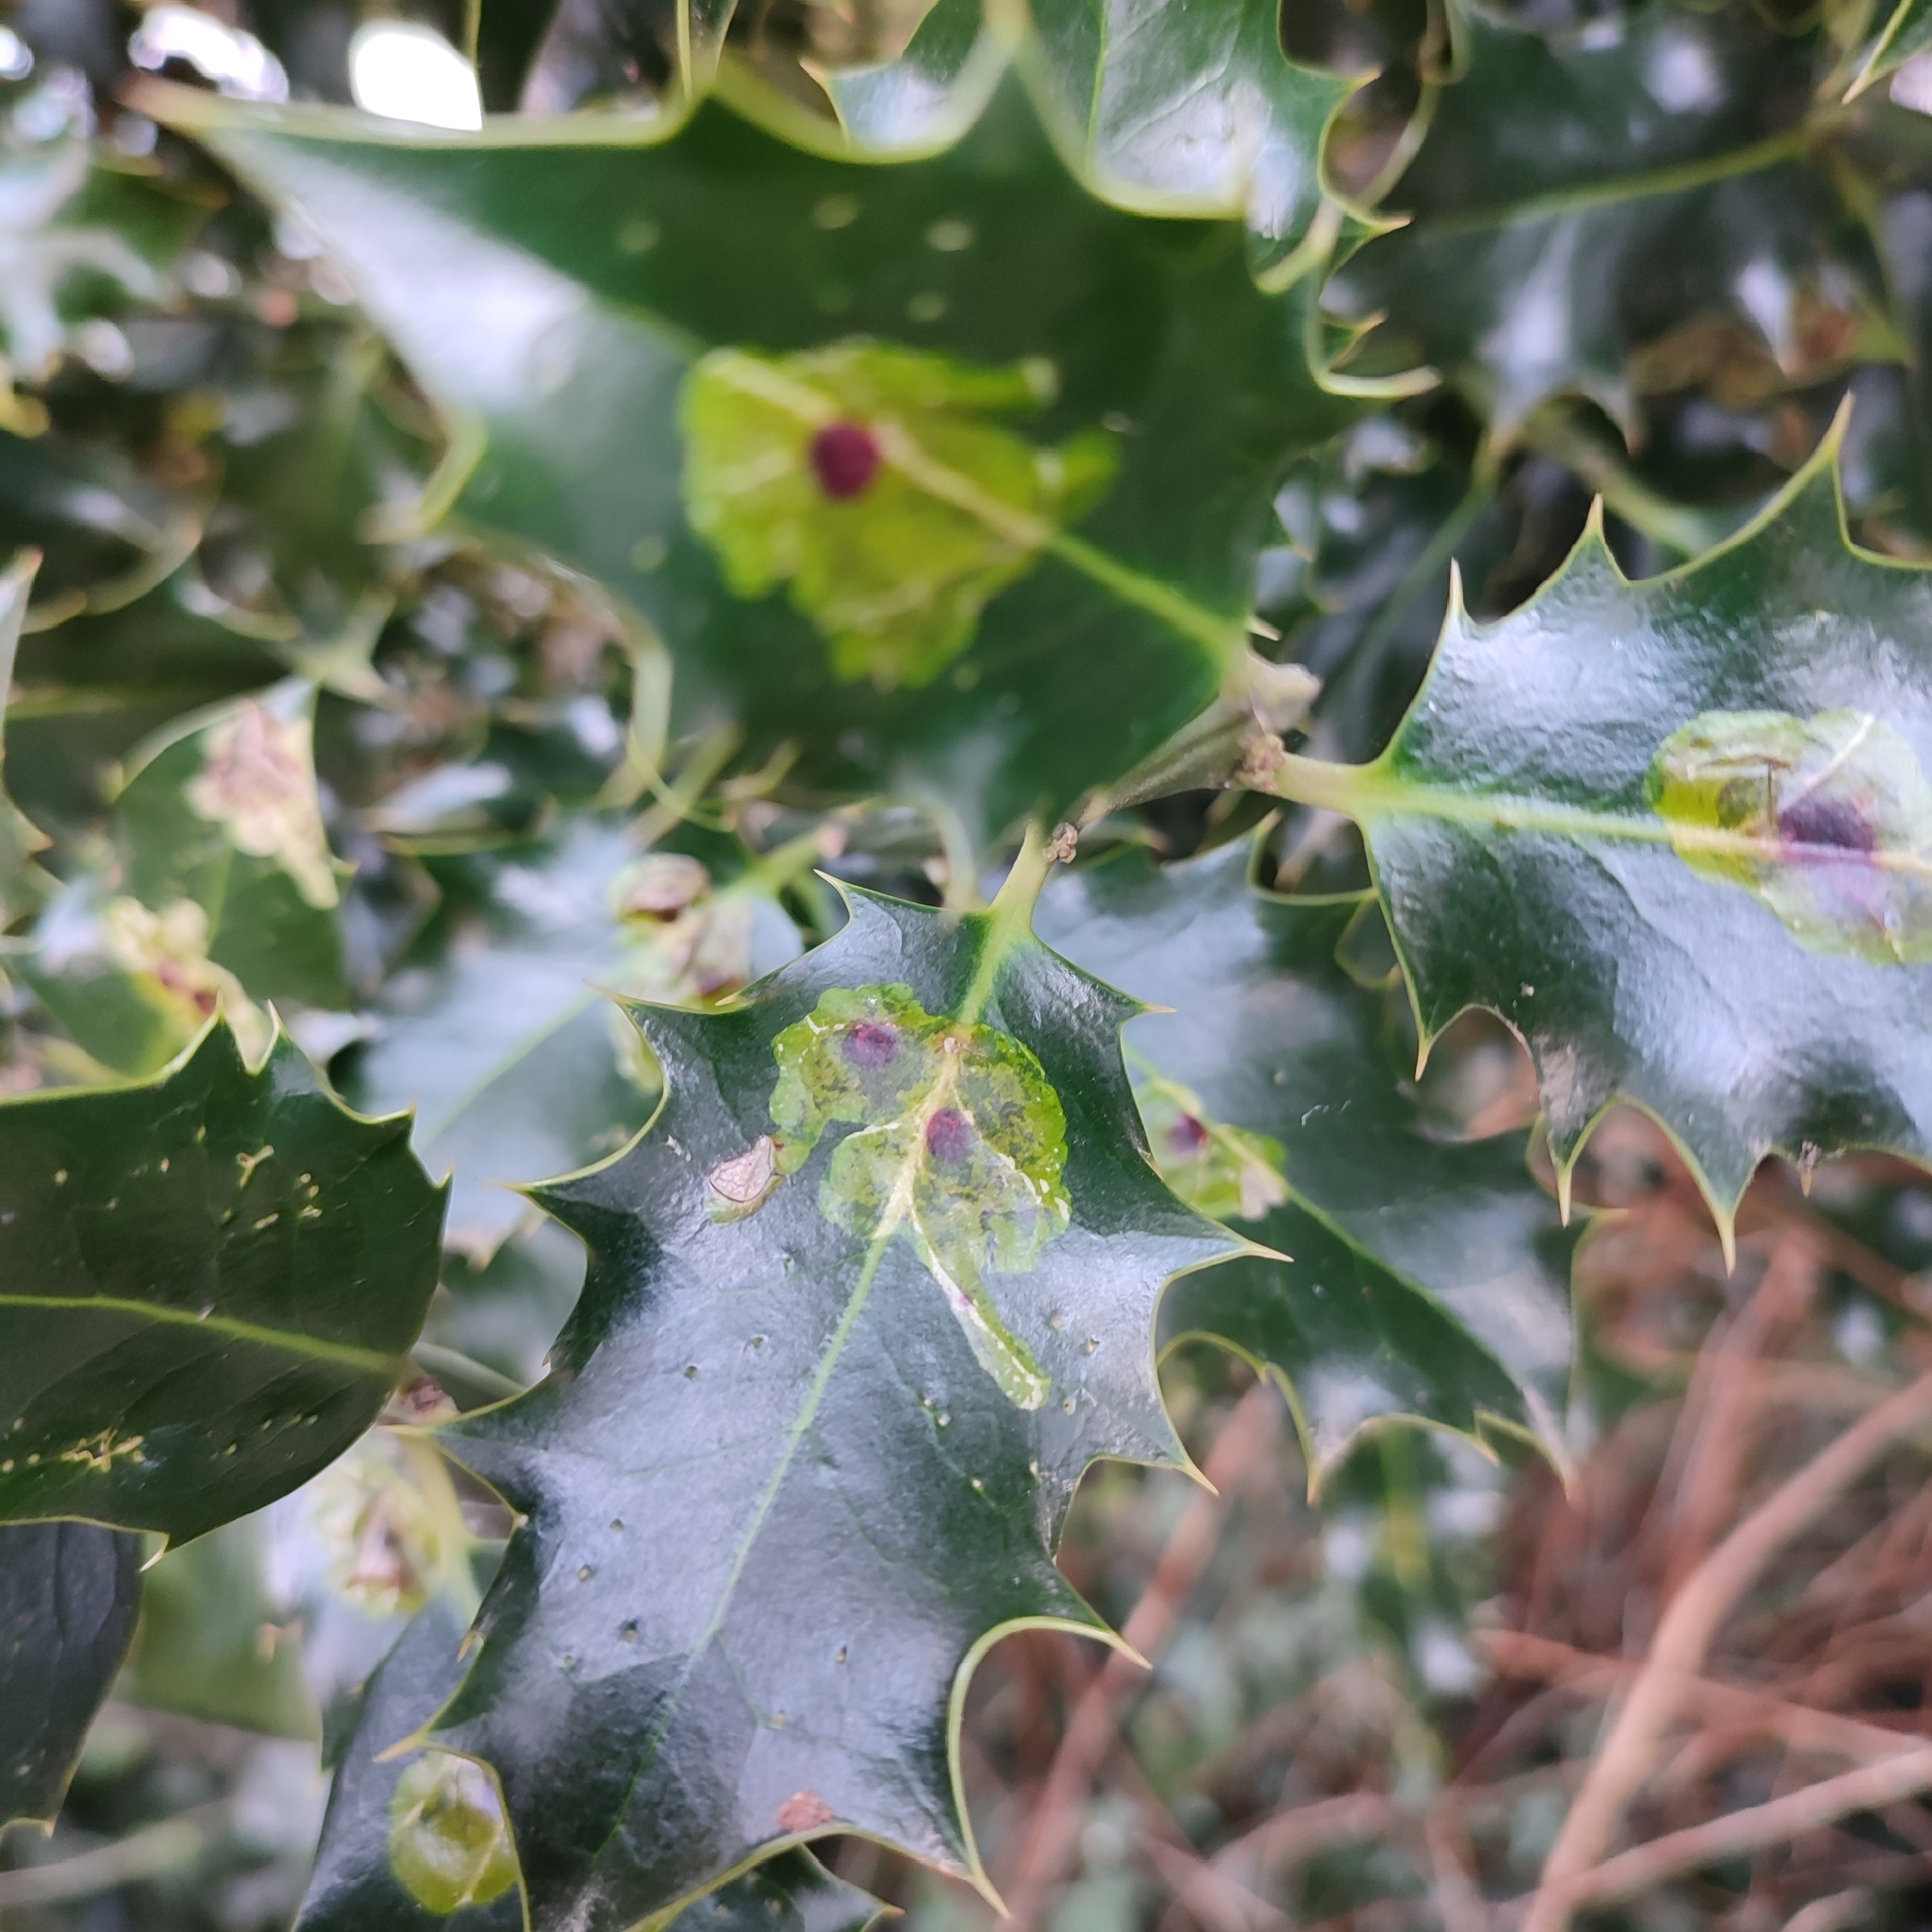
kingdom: Animalia
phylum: Arthropoda
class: Insecta
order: Diptera
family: Agromyzidae
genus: Phytomyza
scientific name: Phytomyza ilicis
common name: Holly leafminer
